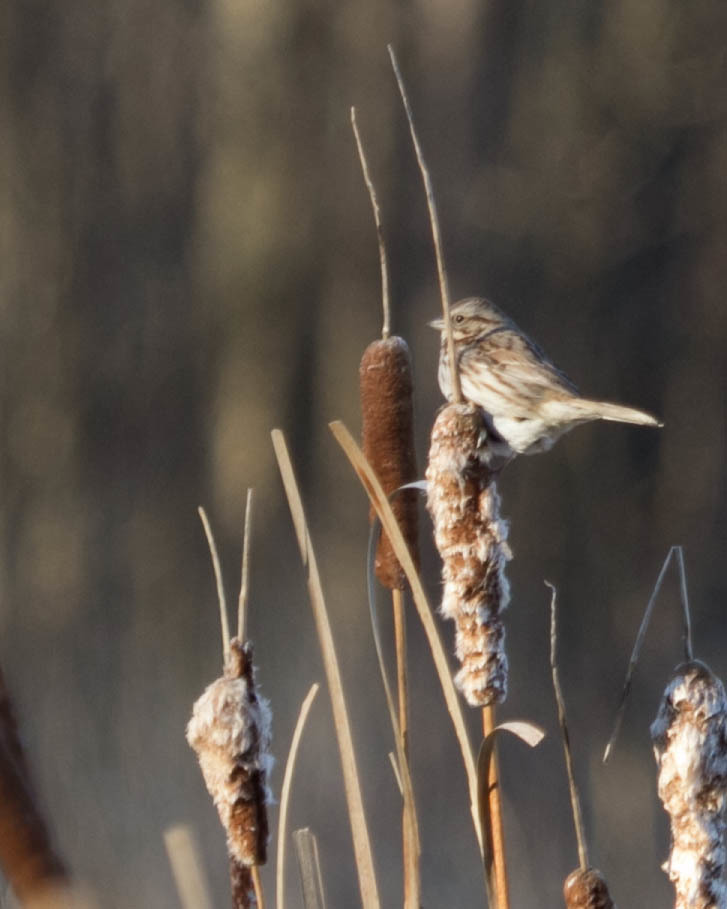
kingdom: Animalia
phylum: Chordata
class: Aves
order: Passeriformes
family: Passerellidae
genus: Melospiza
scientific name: Melospiza melodia
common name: Song sparrow
